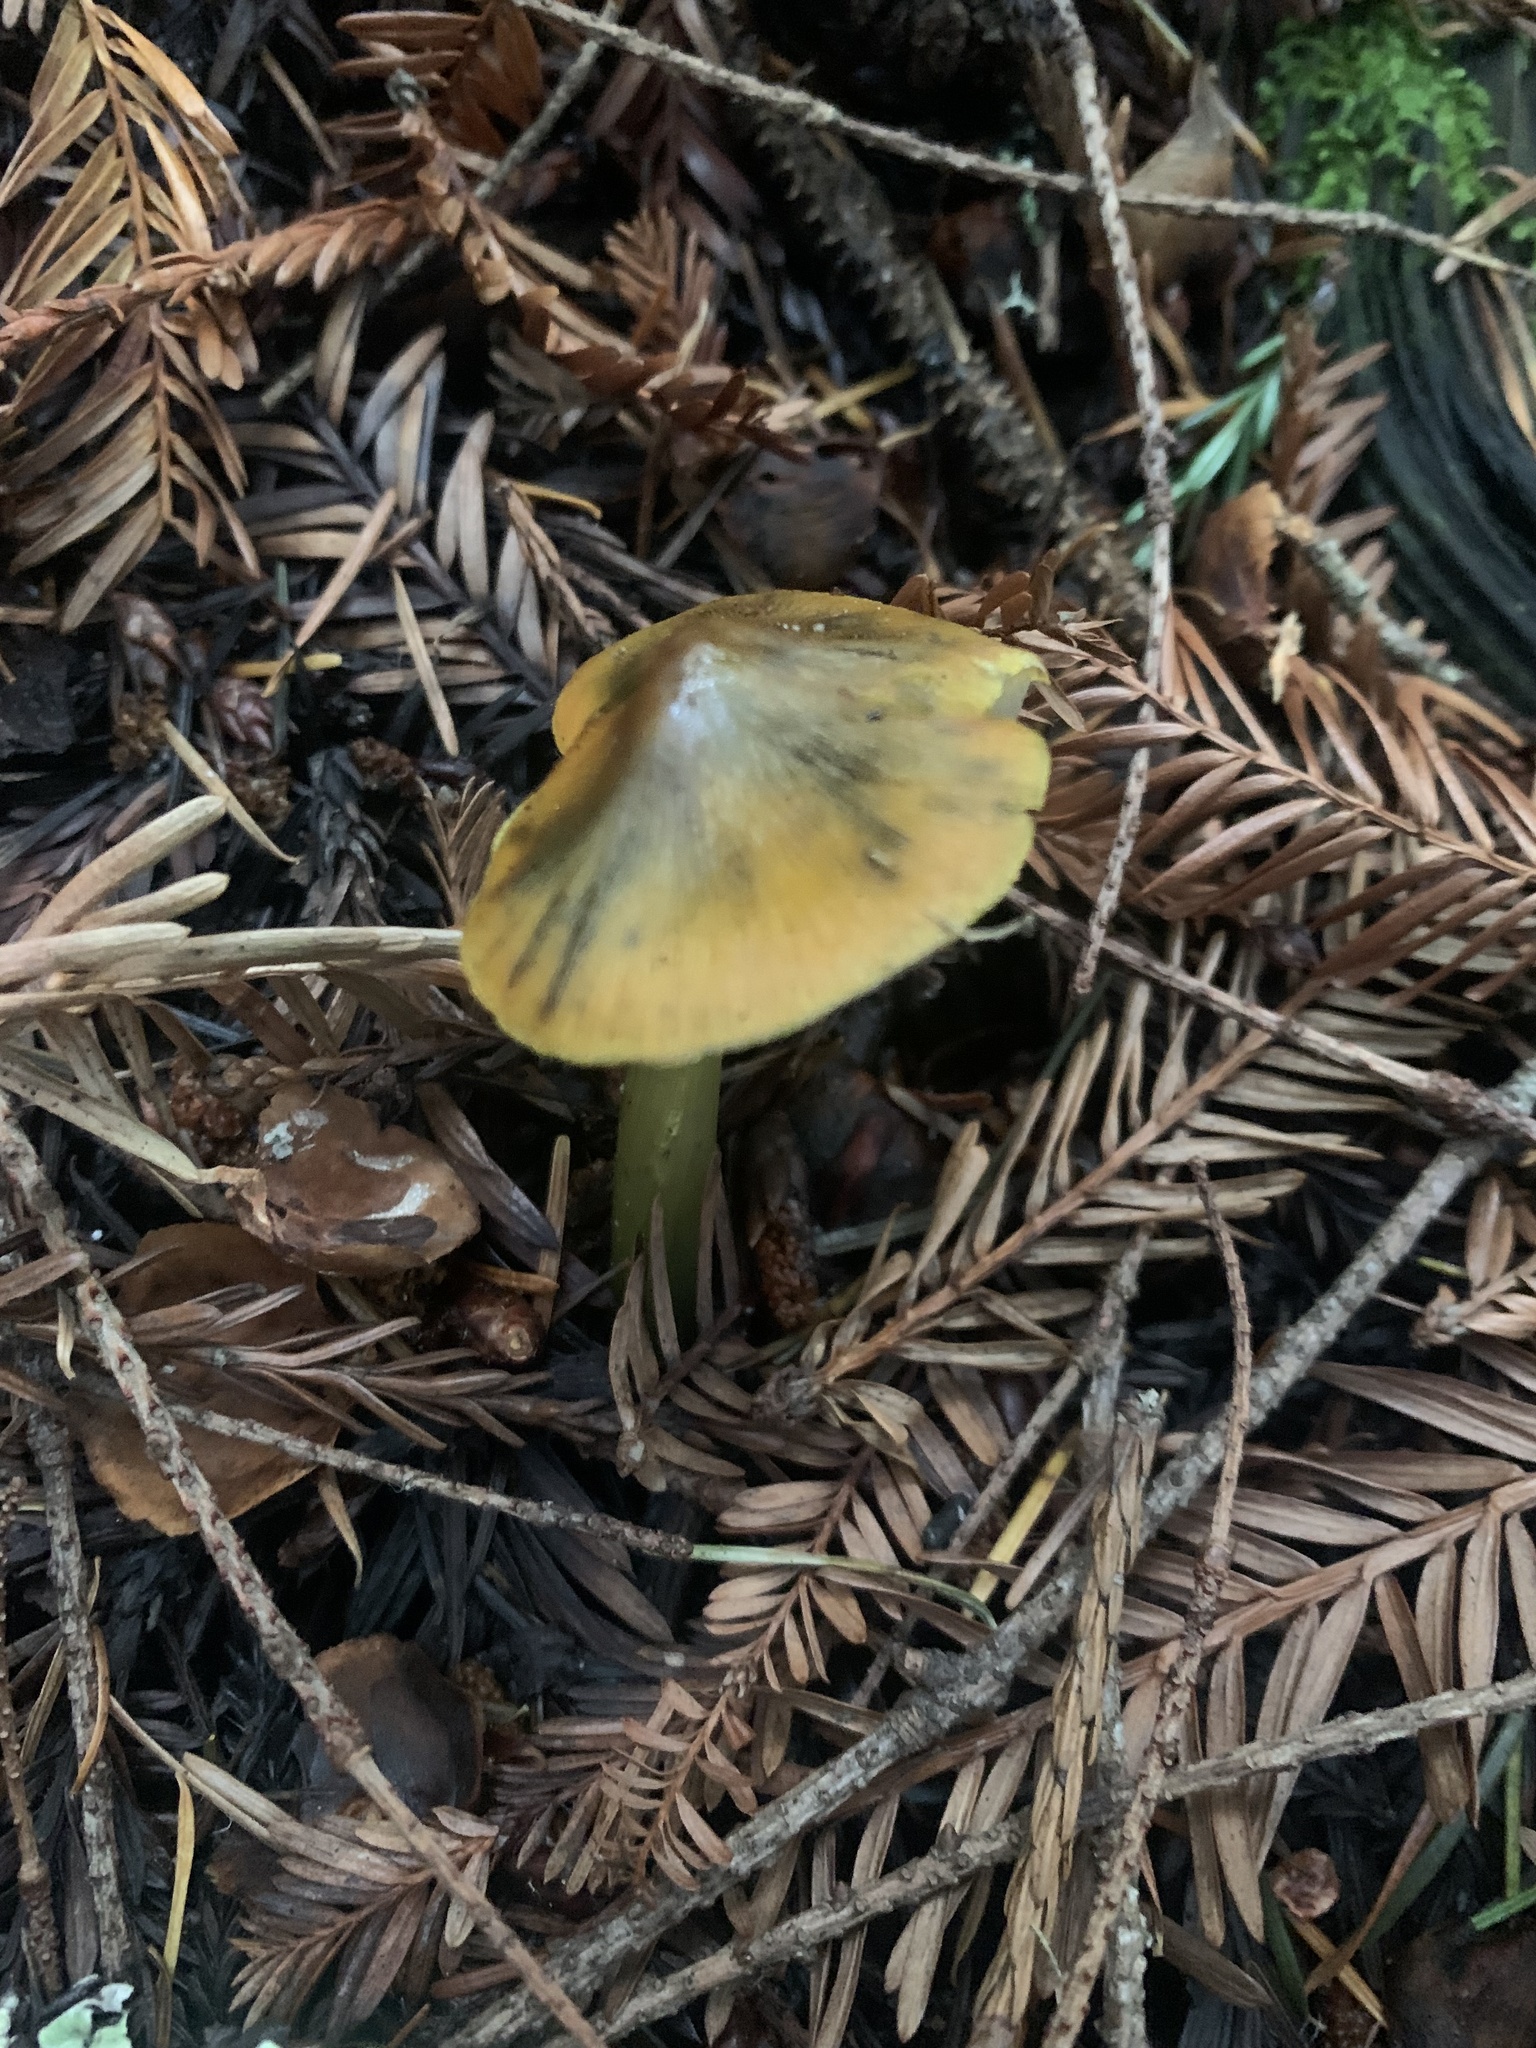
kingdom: Fungi
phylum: Basidiomycota
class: Agaricomycetes
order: Agaricales
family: Hygrophoraceae
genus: Hygrocybe
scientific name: Hygrocybe singeri
